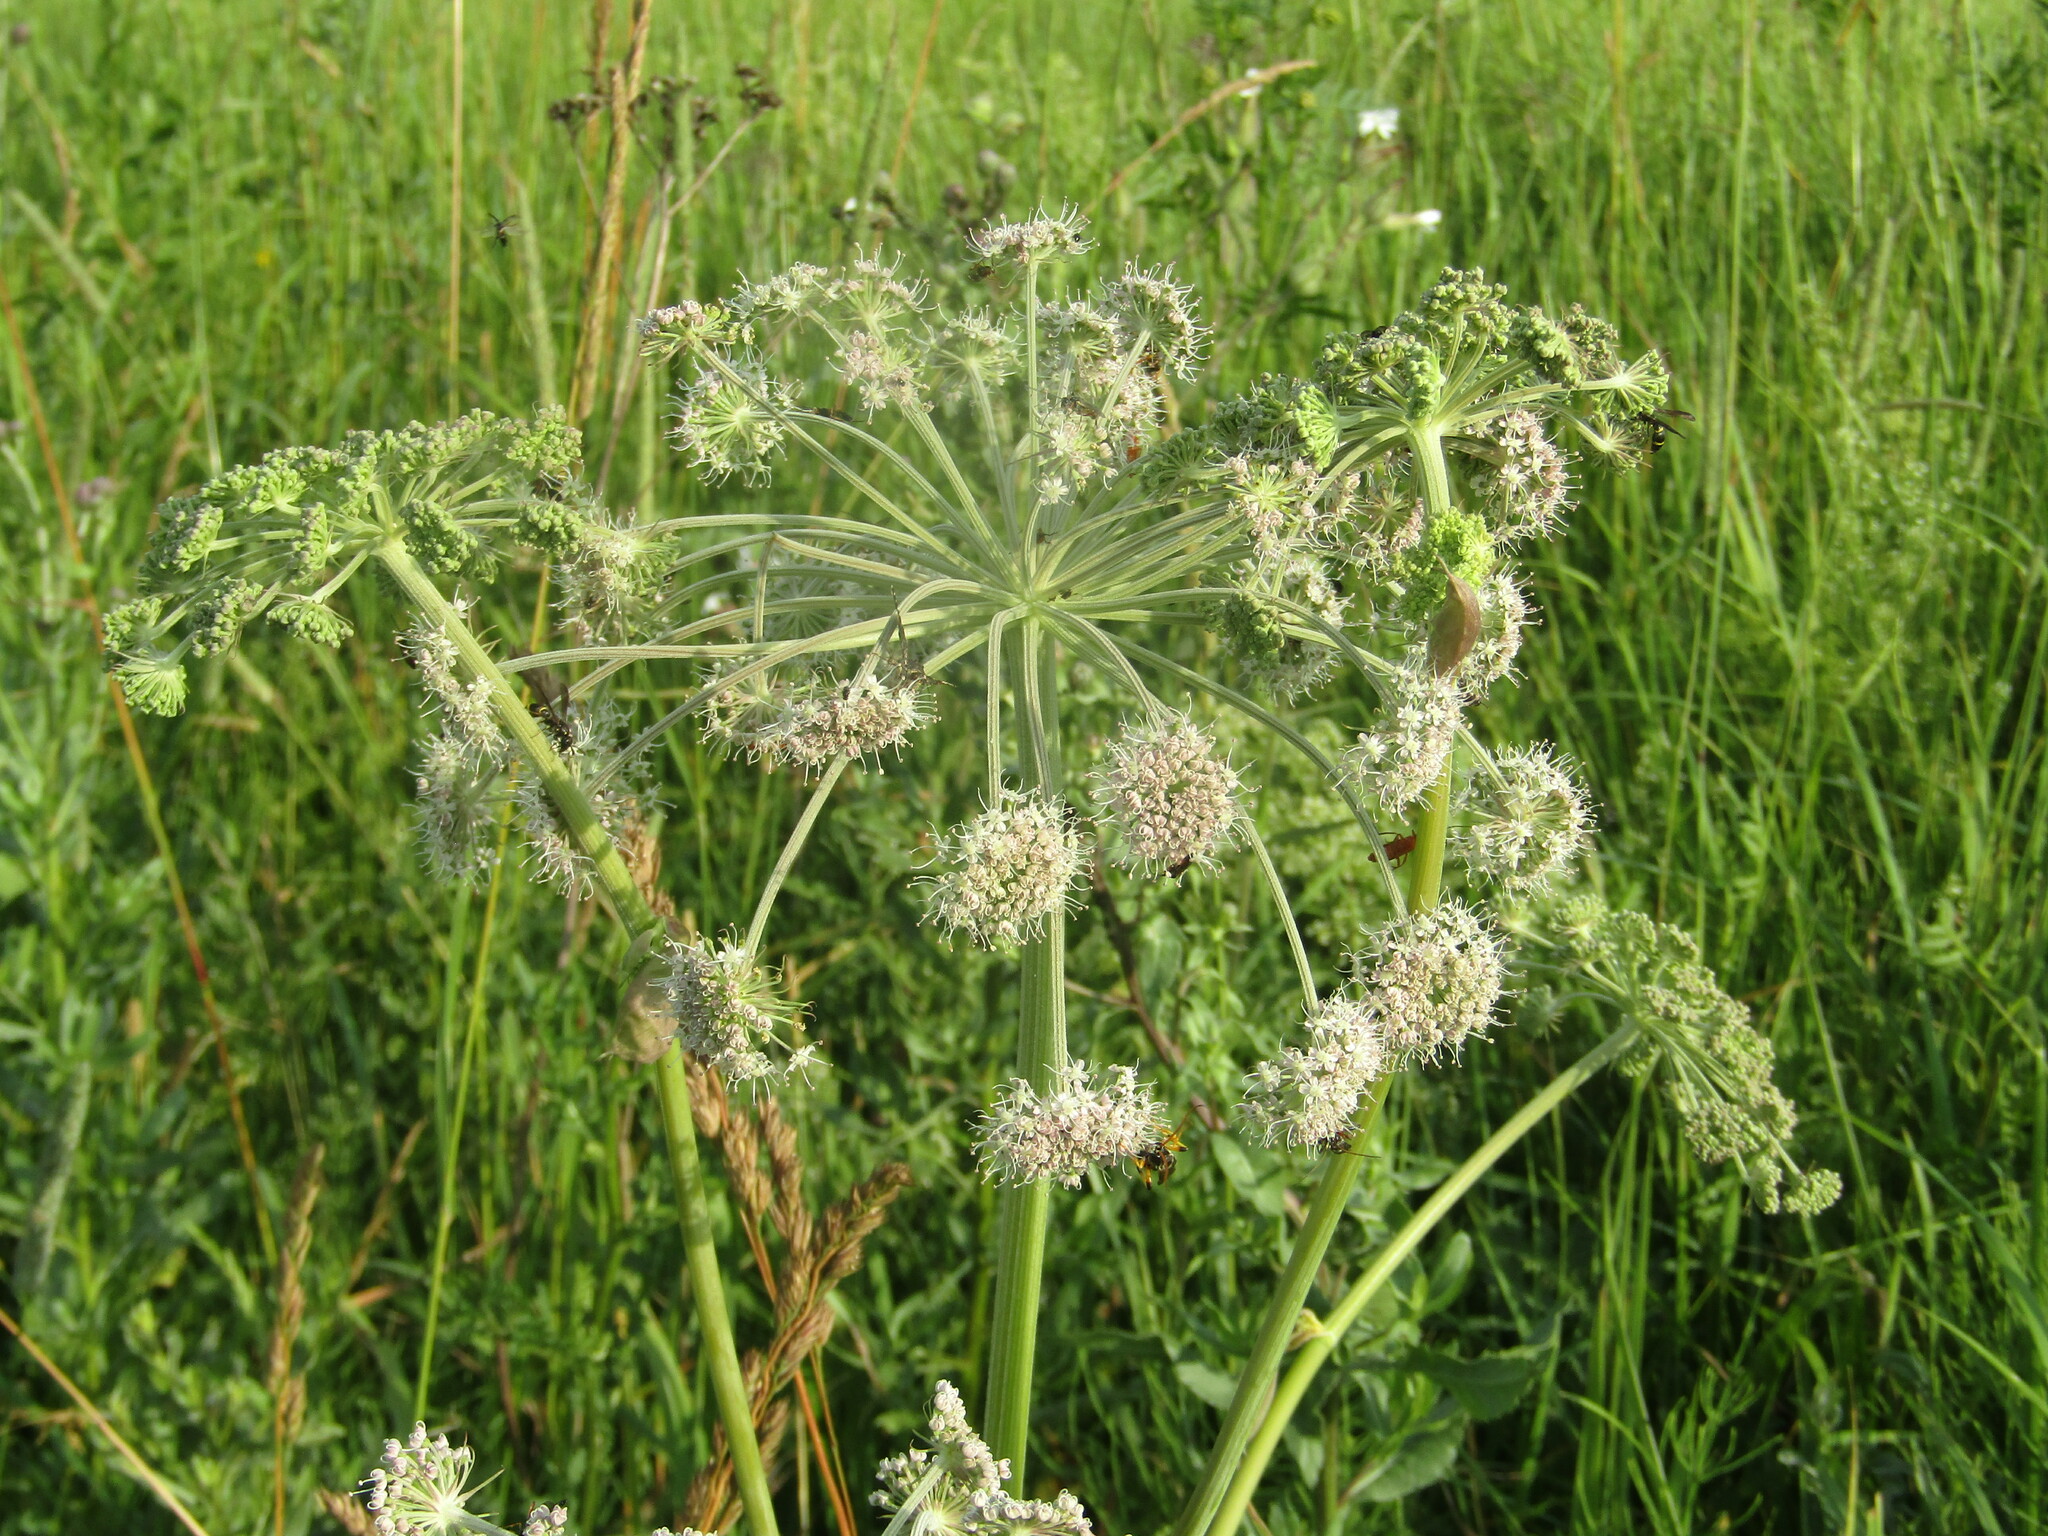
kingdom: Plantae
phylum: Tracheophyta
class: Magnoliopsida
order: Apiales
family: Apiaceae
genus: Angelica
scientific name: Angelica sylvestris
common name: Wild angelica
